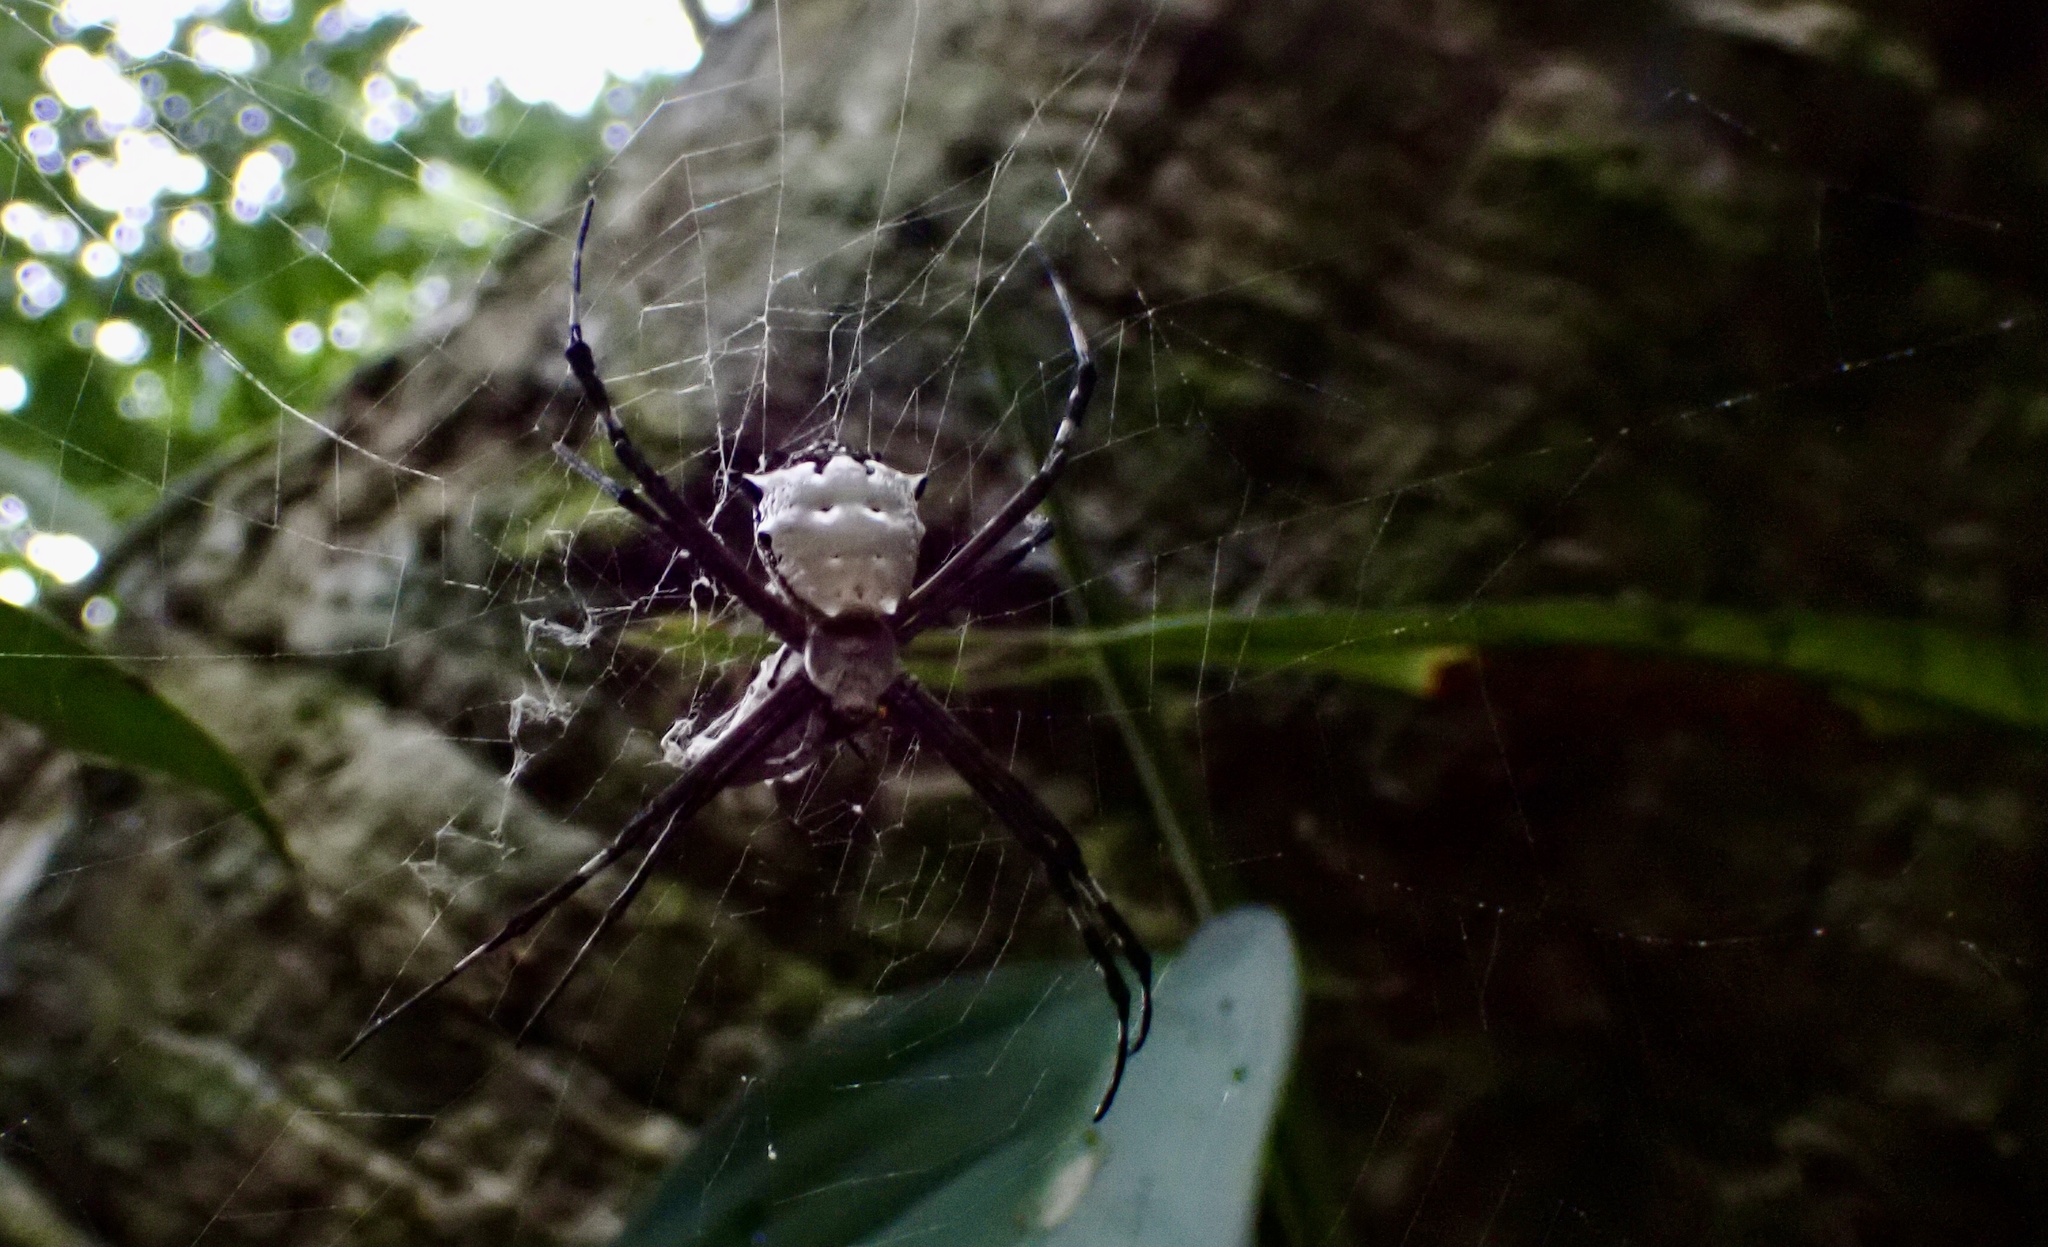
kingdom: Animalia
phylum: Arthropoda
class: Arachnida
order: Araneae
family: Araneidae
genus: Argiope
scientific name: Argiope submaronica
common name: Orb weavers
